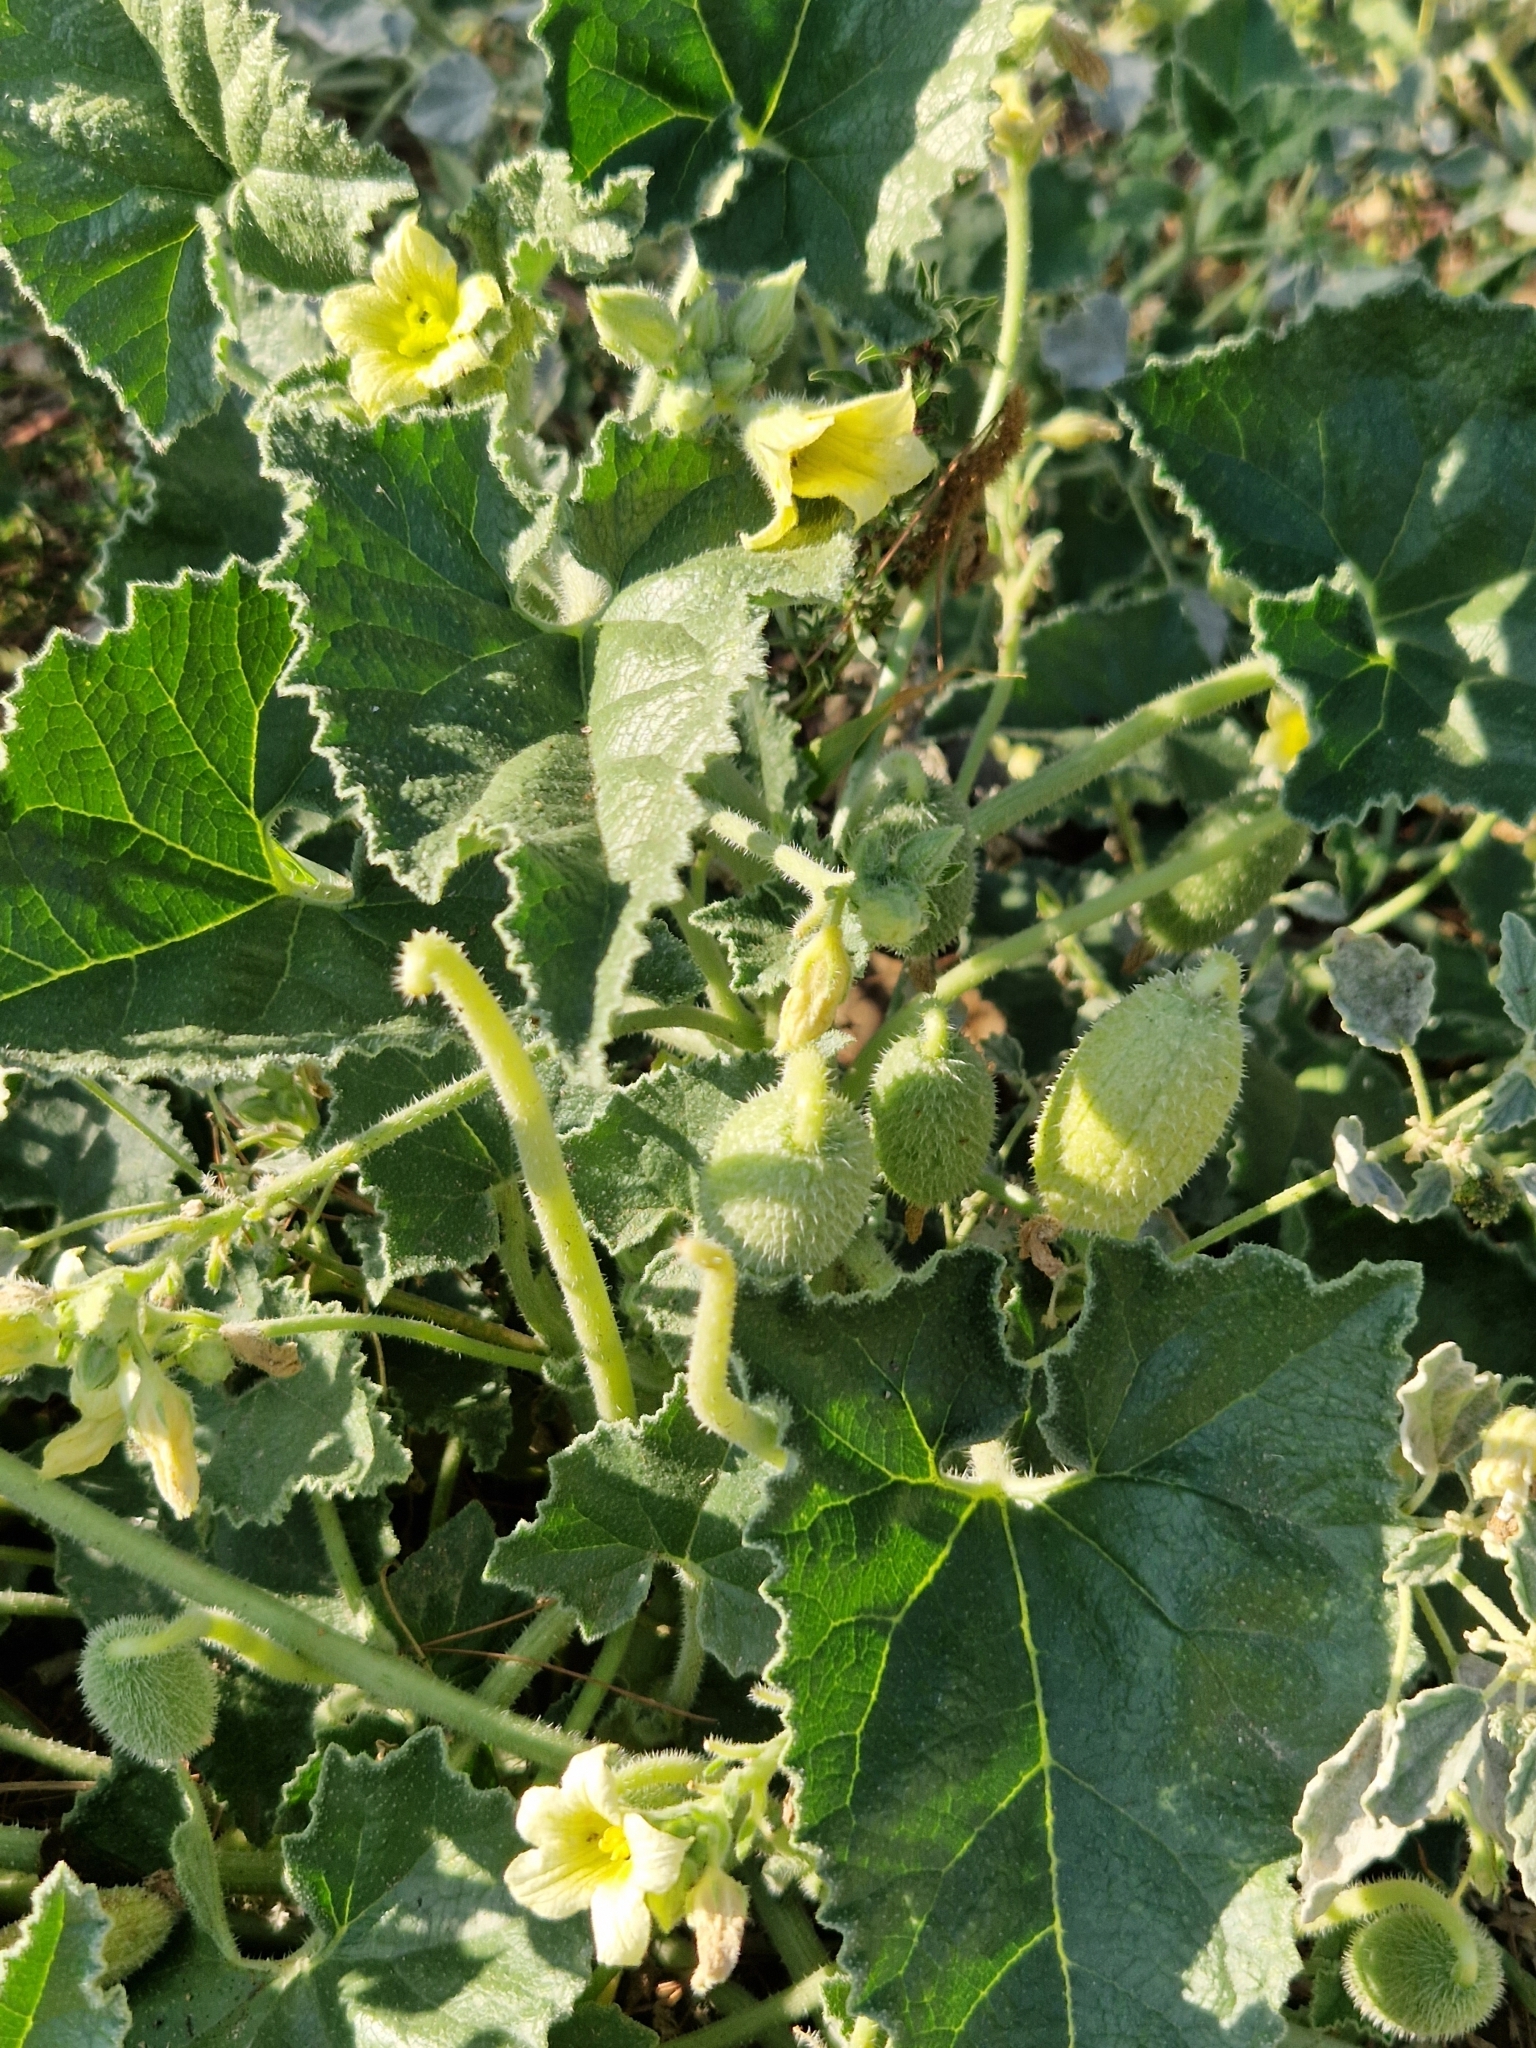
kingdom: Plantae
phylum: Tracheophyta
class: Magnoliopsida
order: Cucurbitales
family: Cucurbitaceae
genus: Ecballium
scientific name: Ecballium elaterium
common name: Squirting cucumber
